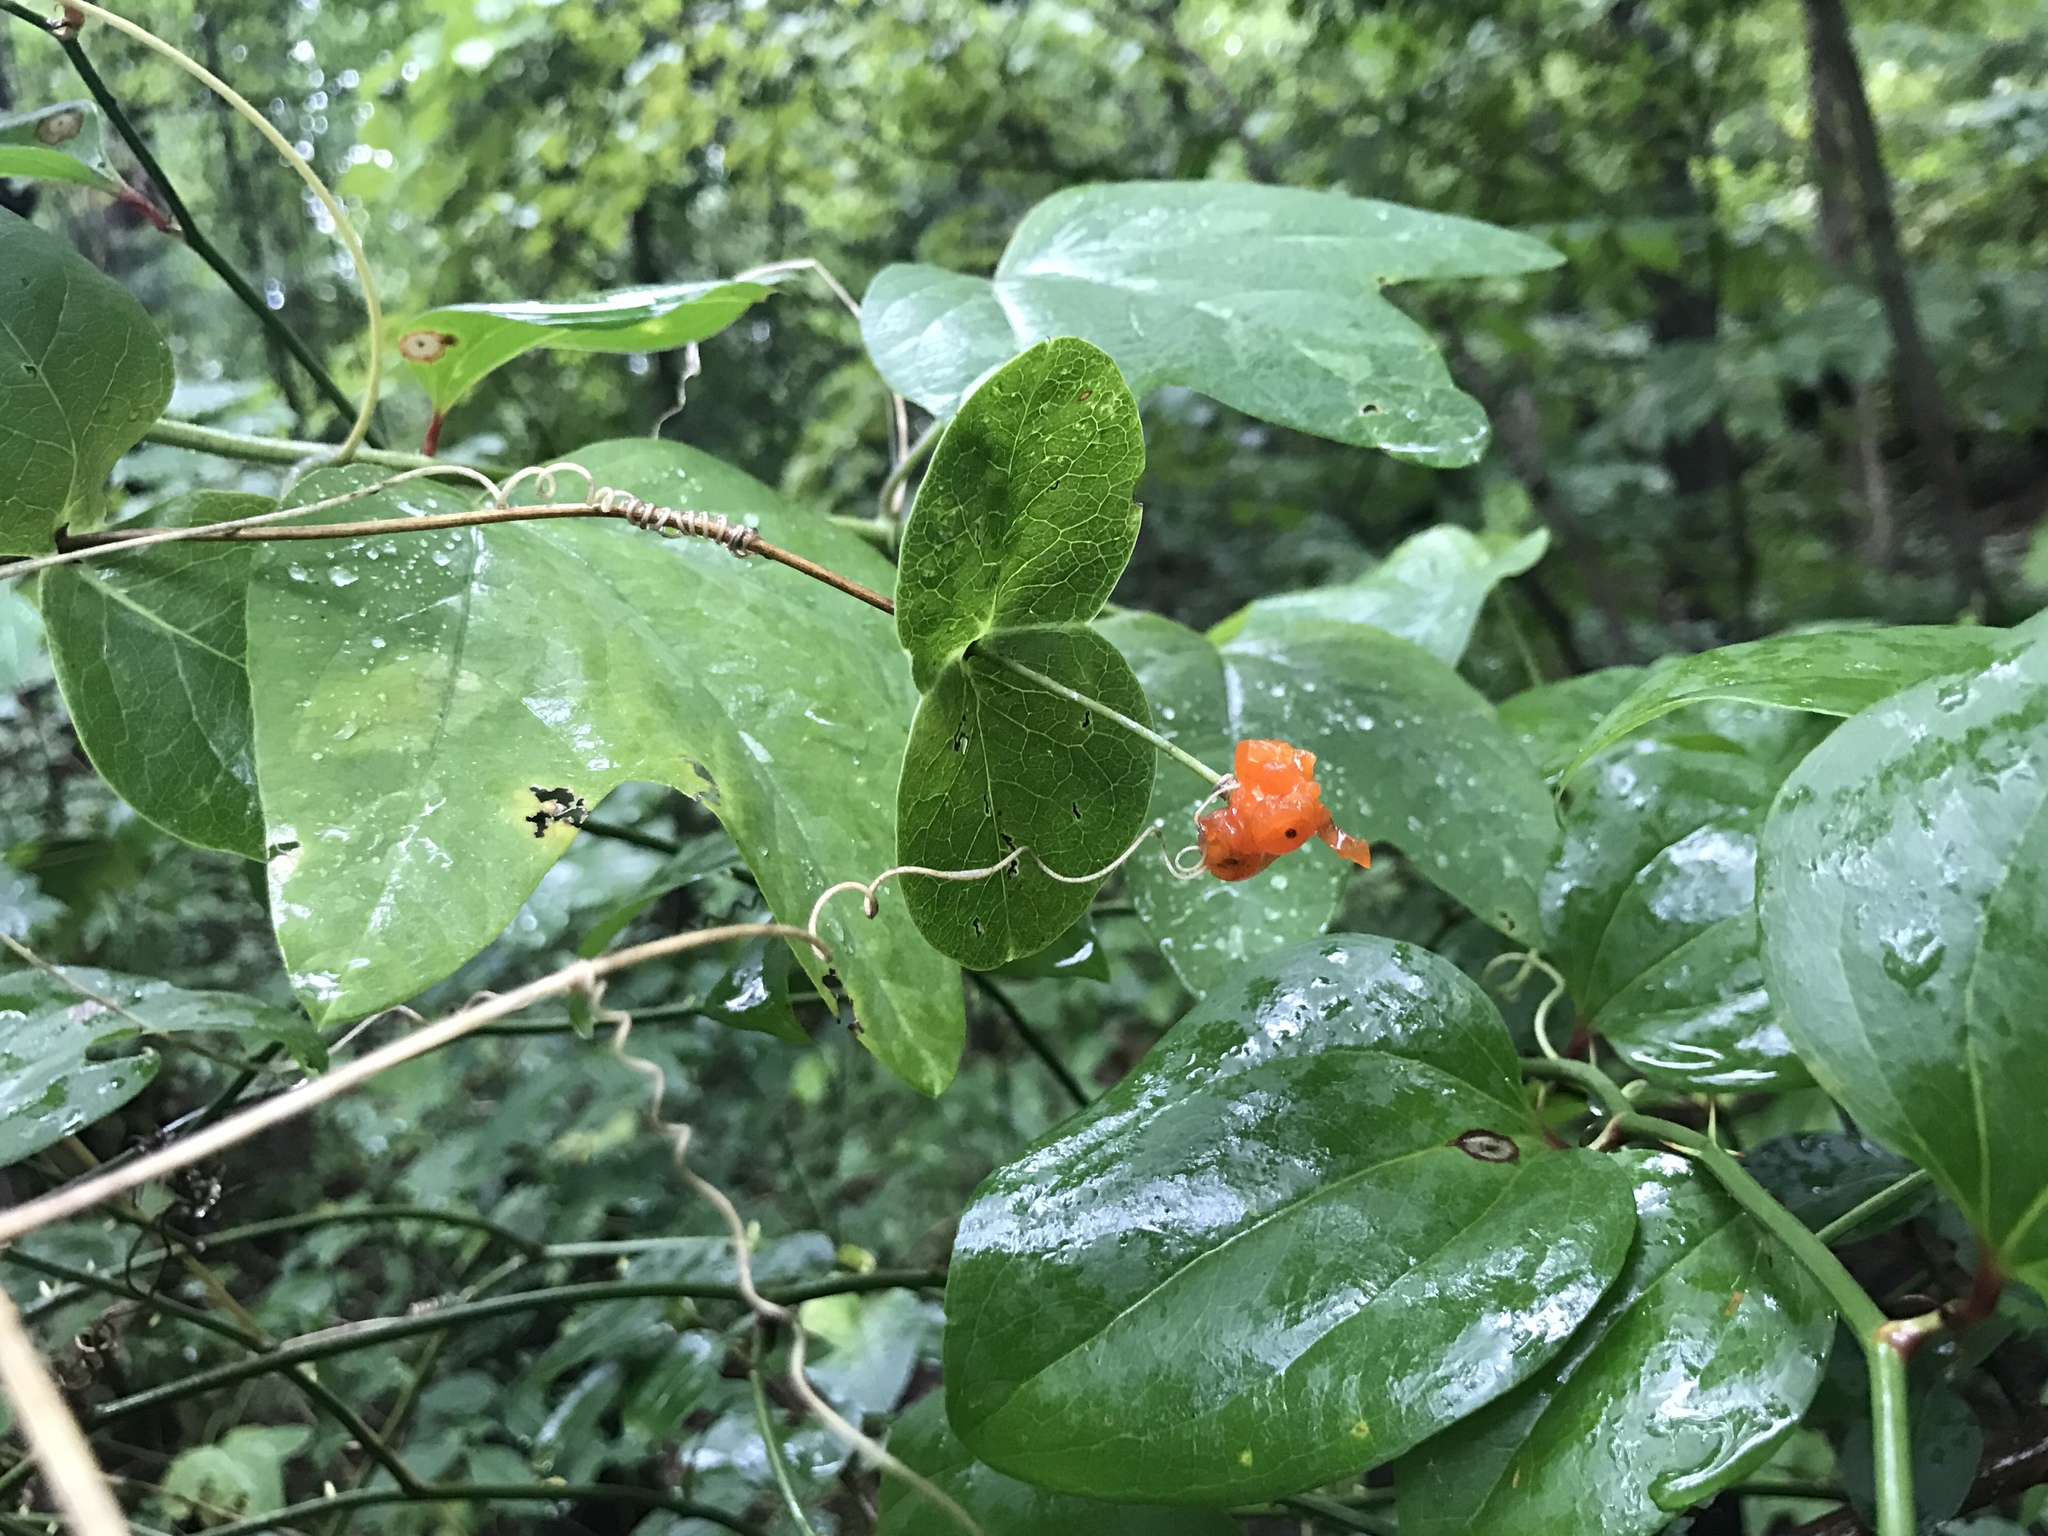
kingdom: Plantae
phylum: Tracheophyta
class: Magnoliopsida
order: Dipsacales
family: Caprifoliaceae
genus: Lonicera
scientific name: Lonicera sempervirens
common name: Coral honeysuckle
